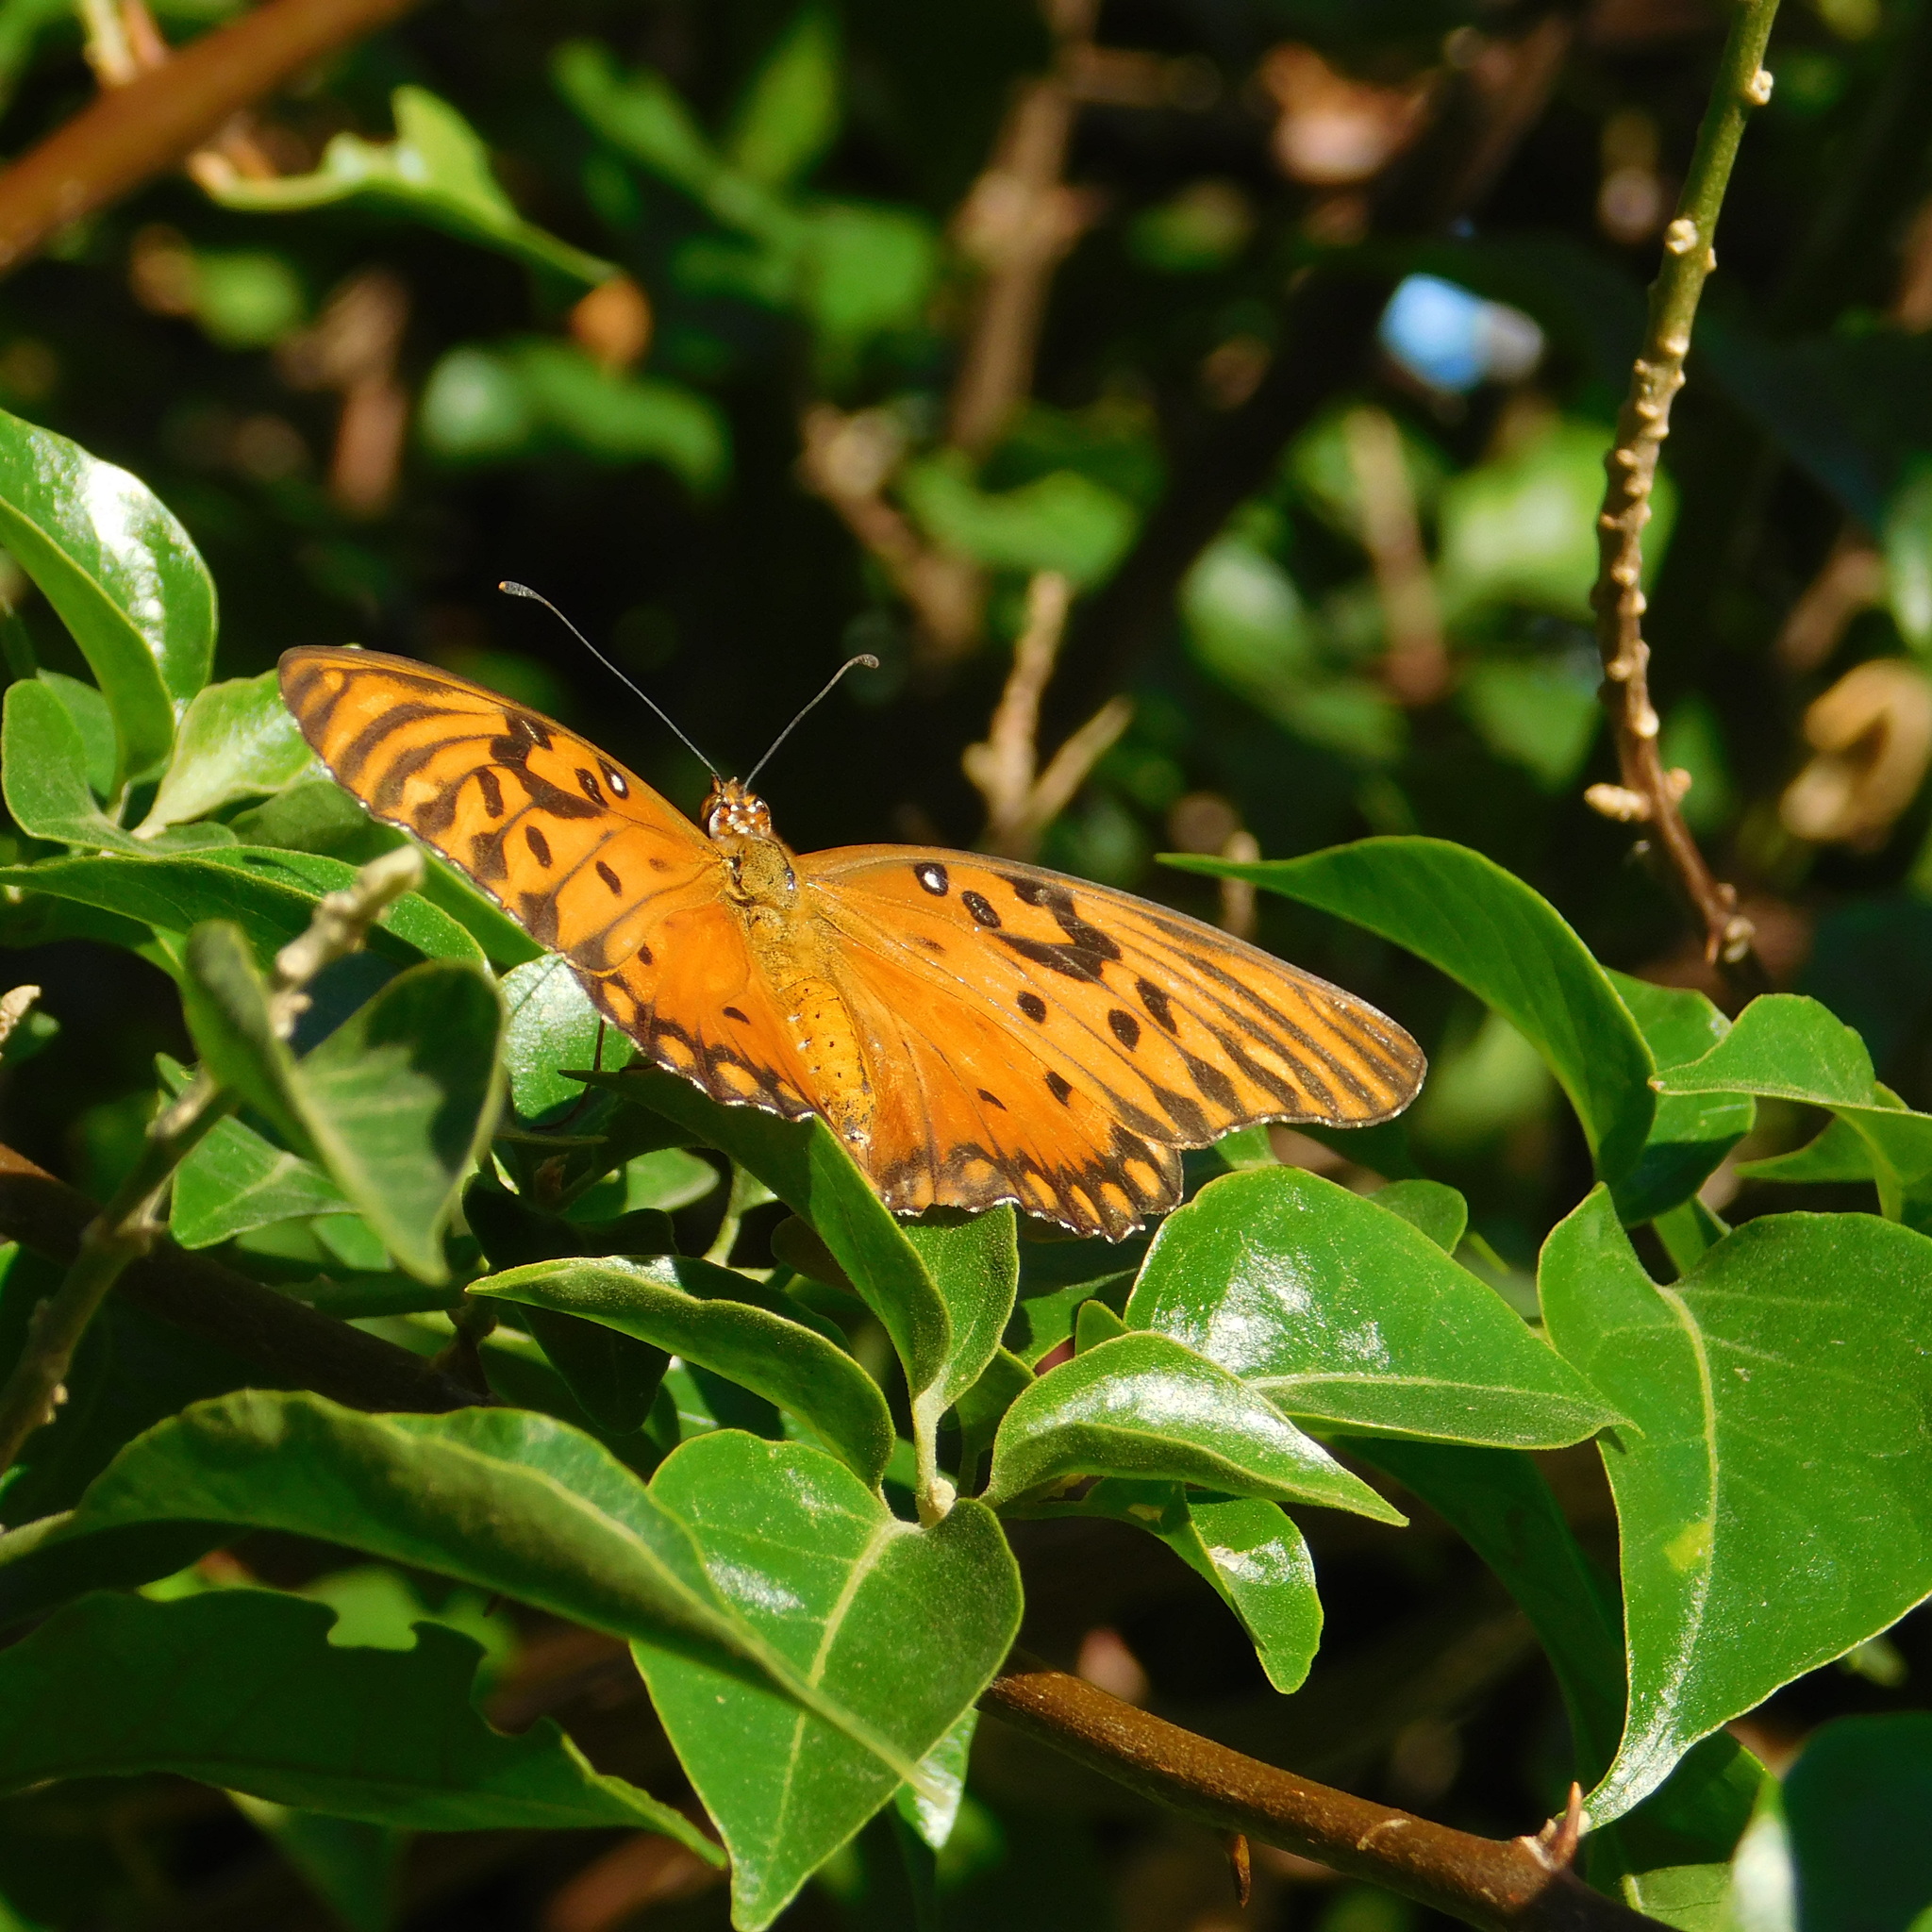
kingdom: Animalia
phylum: Arthropoda
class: Insecta
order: Lepidoptera
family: Nymphalidae
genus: Dione
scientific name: Dione vanillae
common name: Gulf fritillary
